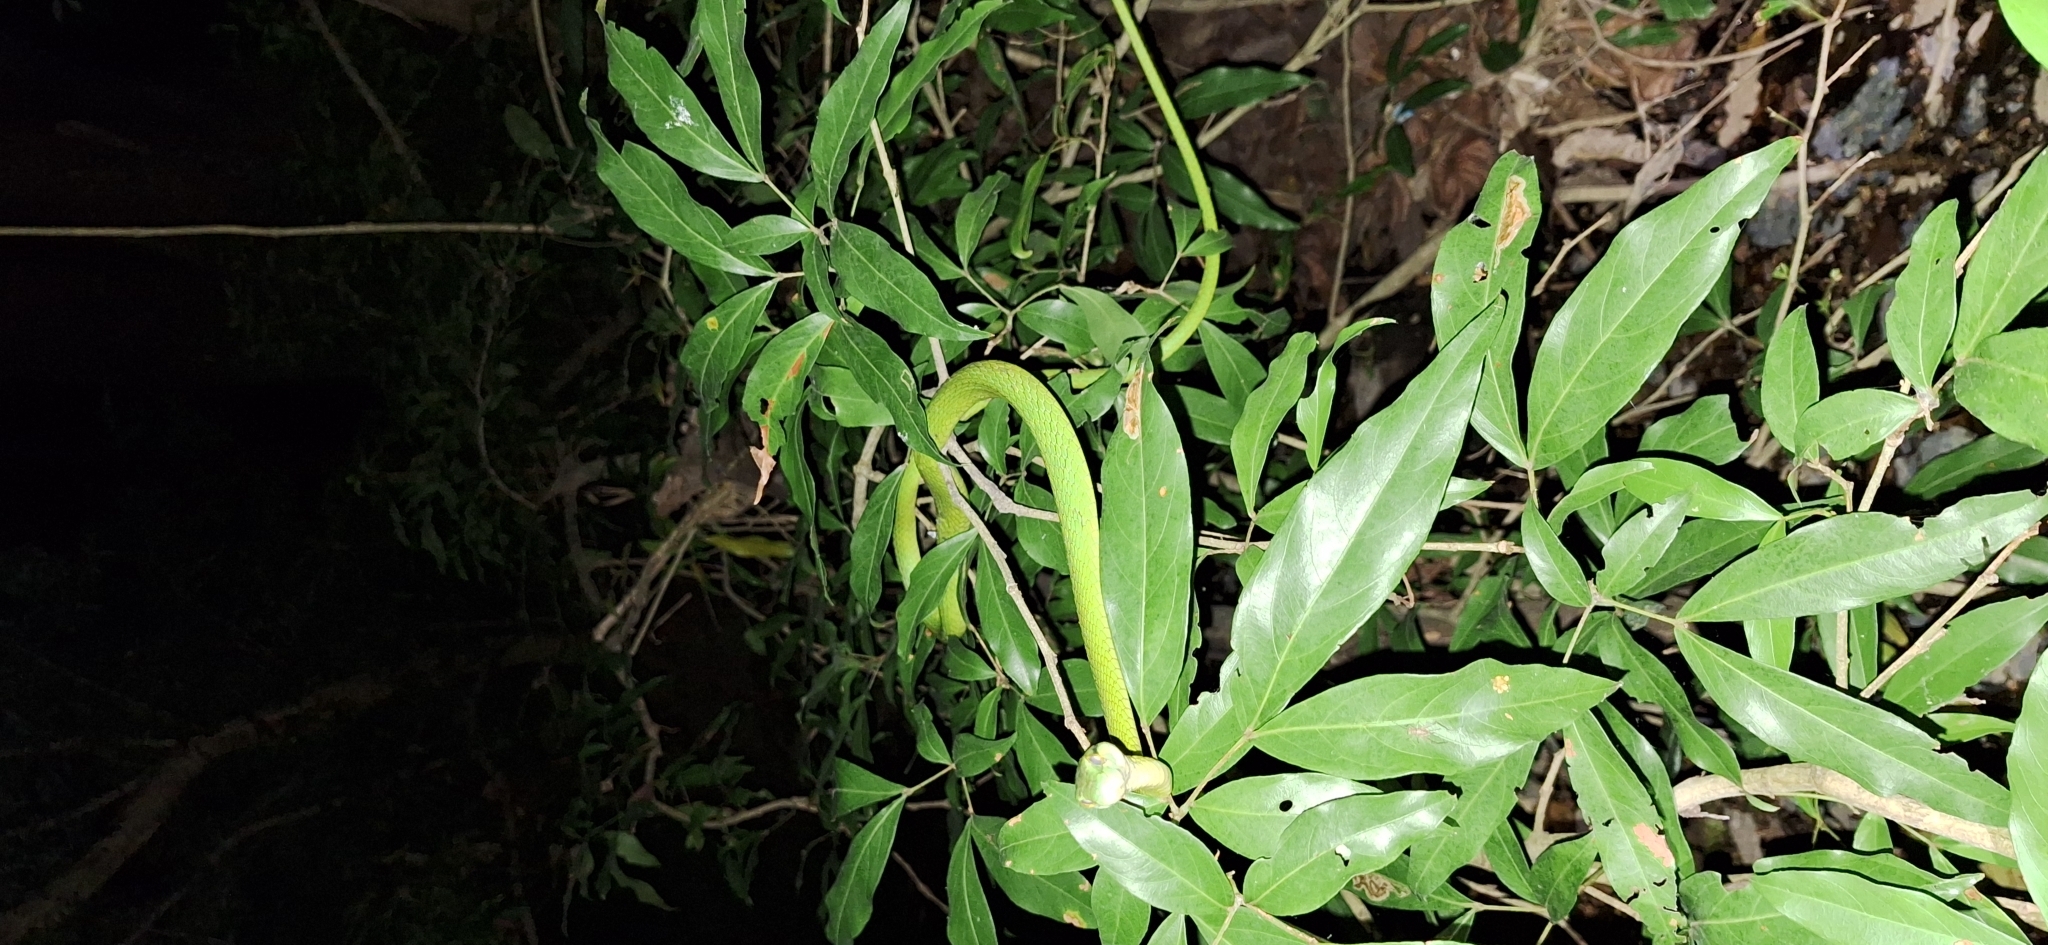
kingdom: Animalia
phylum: Chordata
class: Squamata
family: Colubridae
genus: Leptophis
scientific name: Leptophis ahaetulla
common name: Parrot snake
